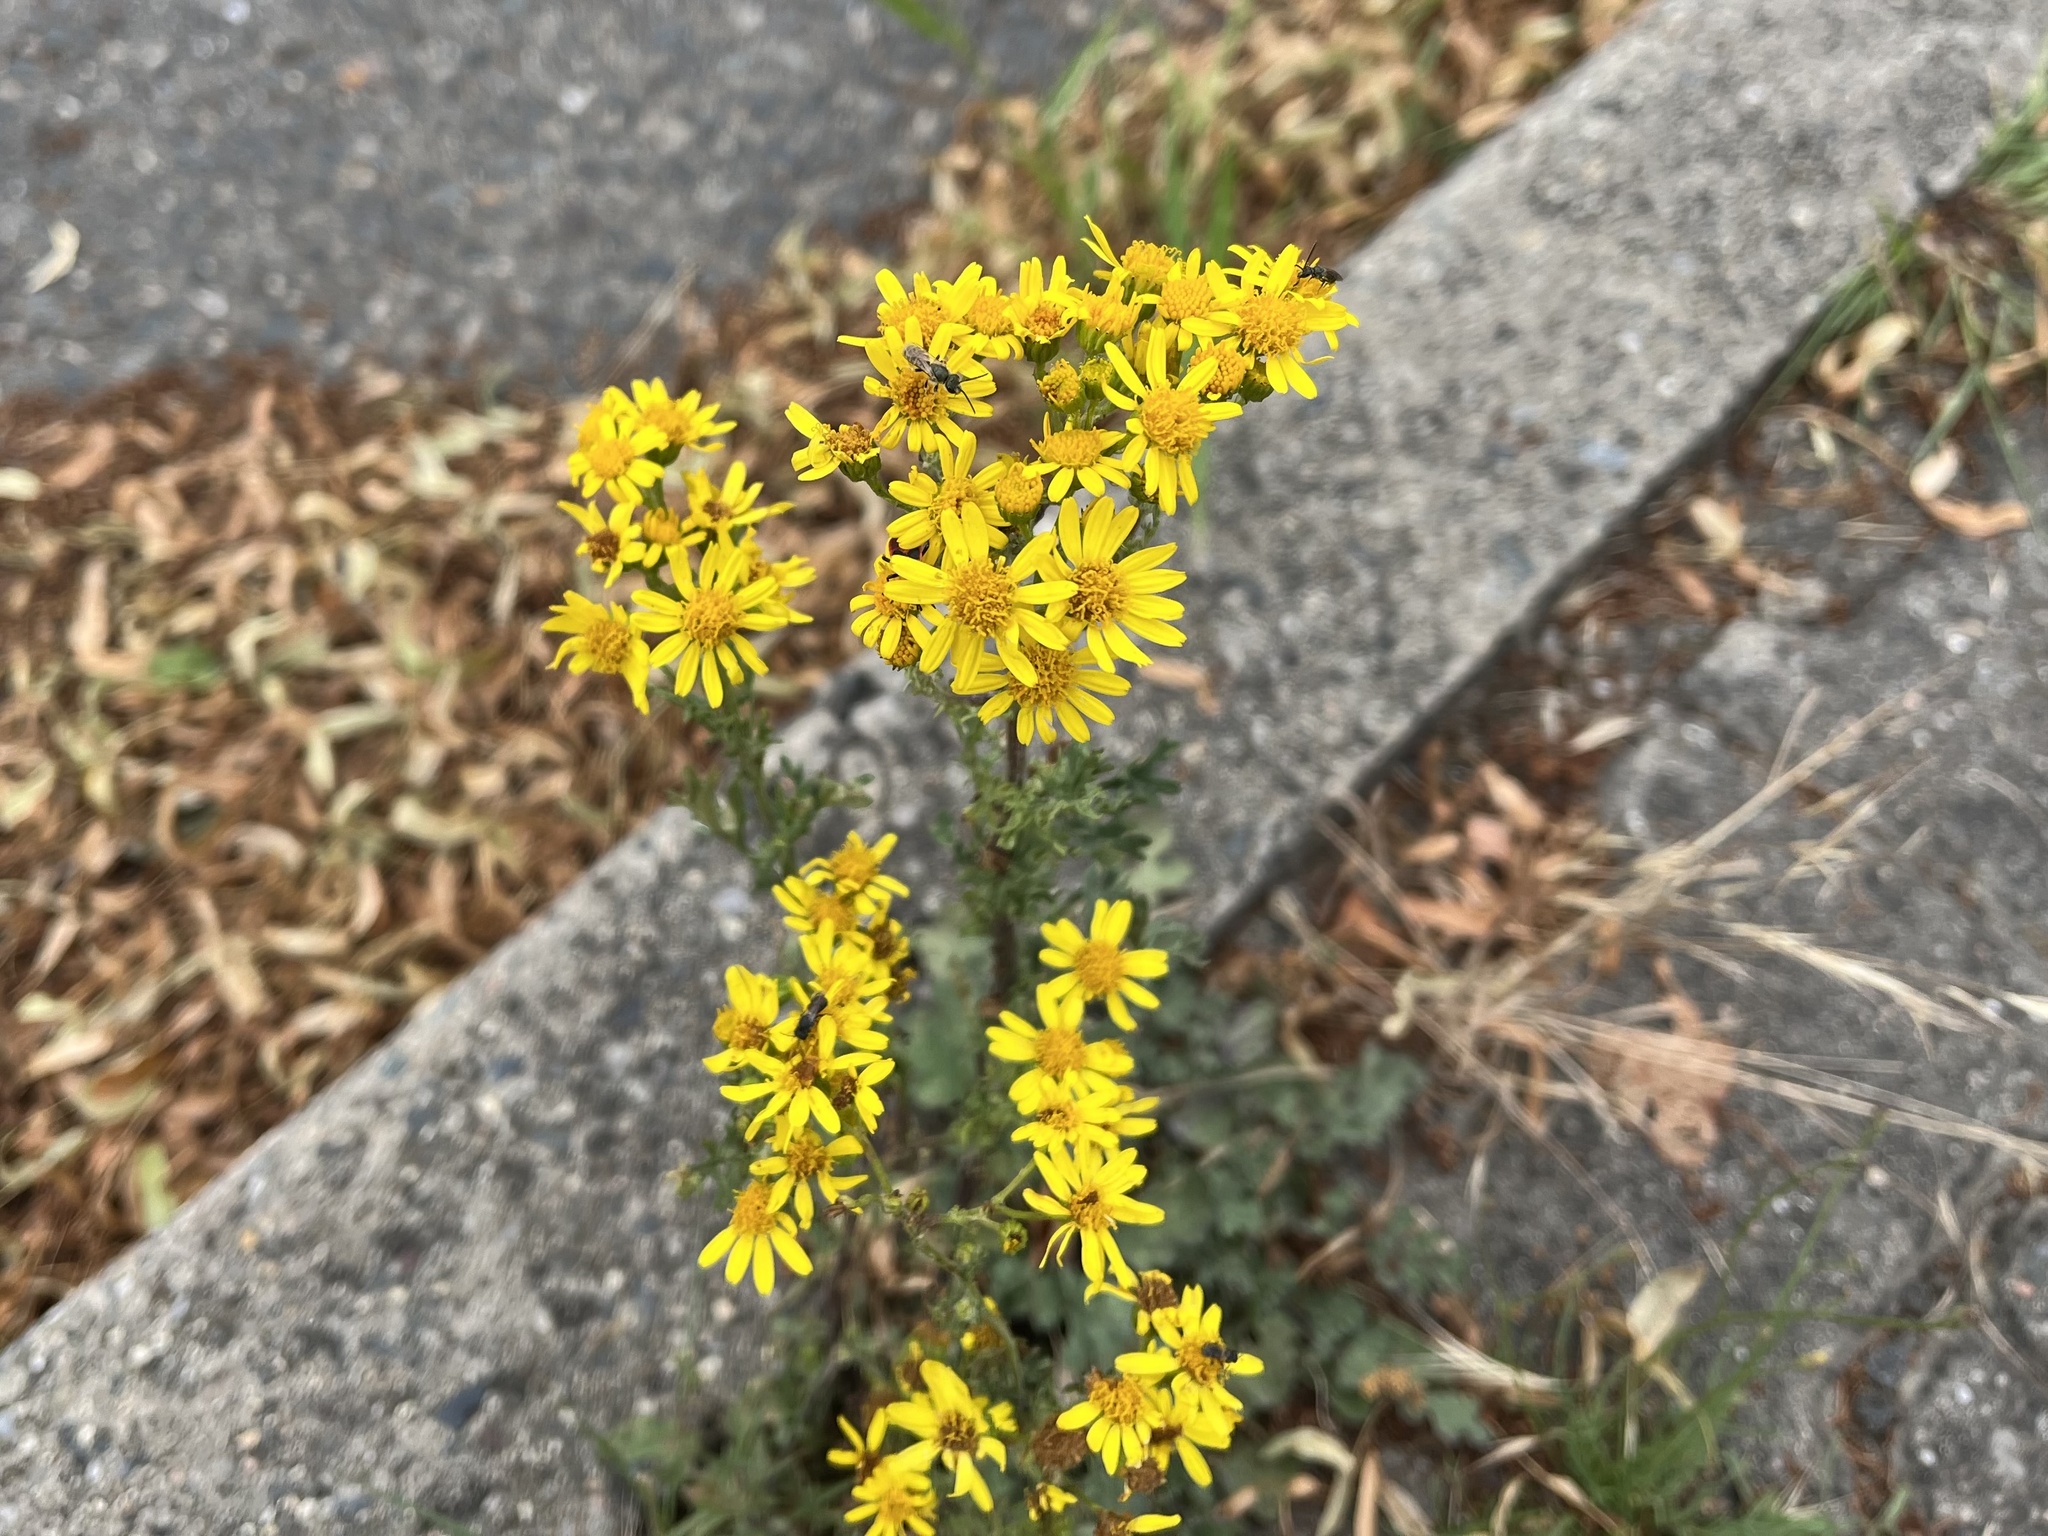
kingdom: Plantae
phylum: Tracheophyta
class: Magnoliopsida
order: Asterales
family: Asteraceae
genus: Jacobaea
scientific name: Jacobaea vulgaris
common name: Stinking willie
